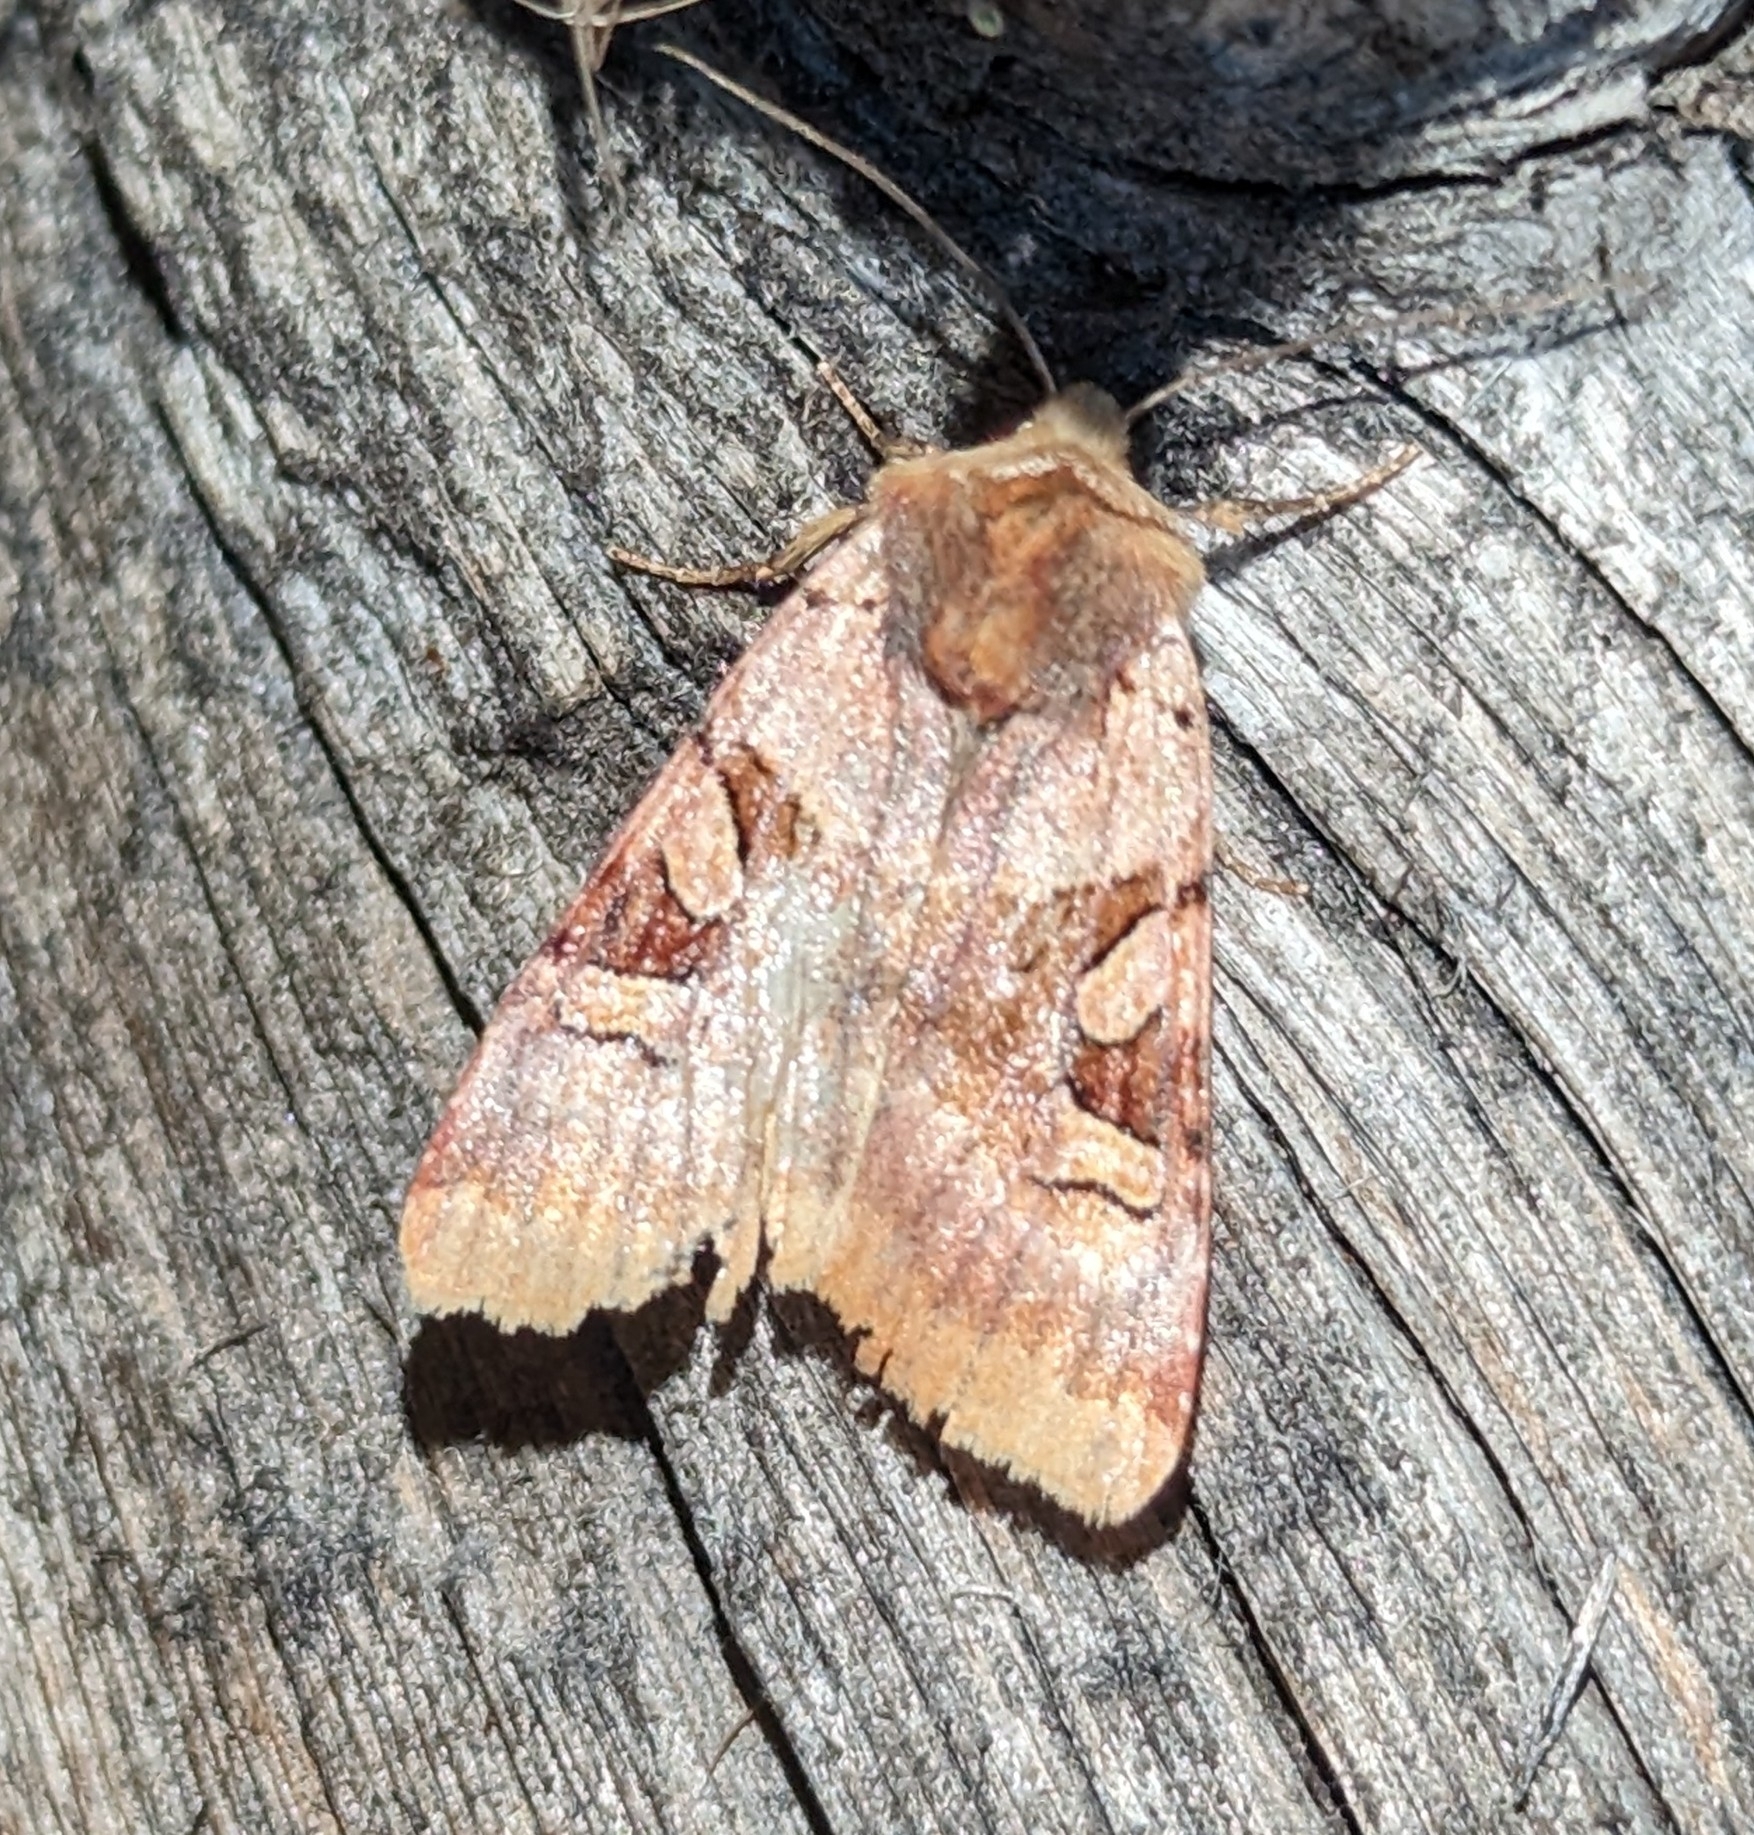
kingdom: Animalia
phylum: Arthropoda
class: Insecta
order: Lepidoptera
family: Noctuidae
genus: Xestia
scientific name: Xestia oblata
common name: Rosy dart
